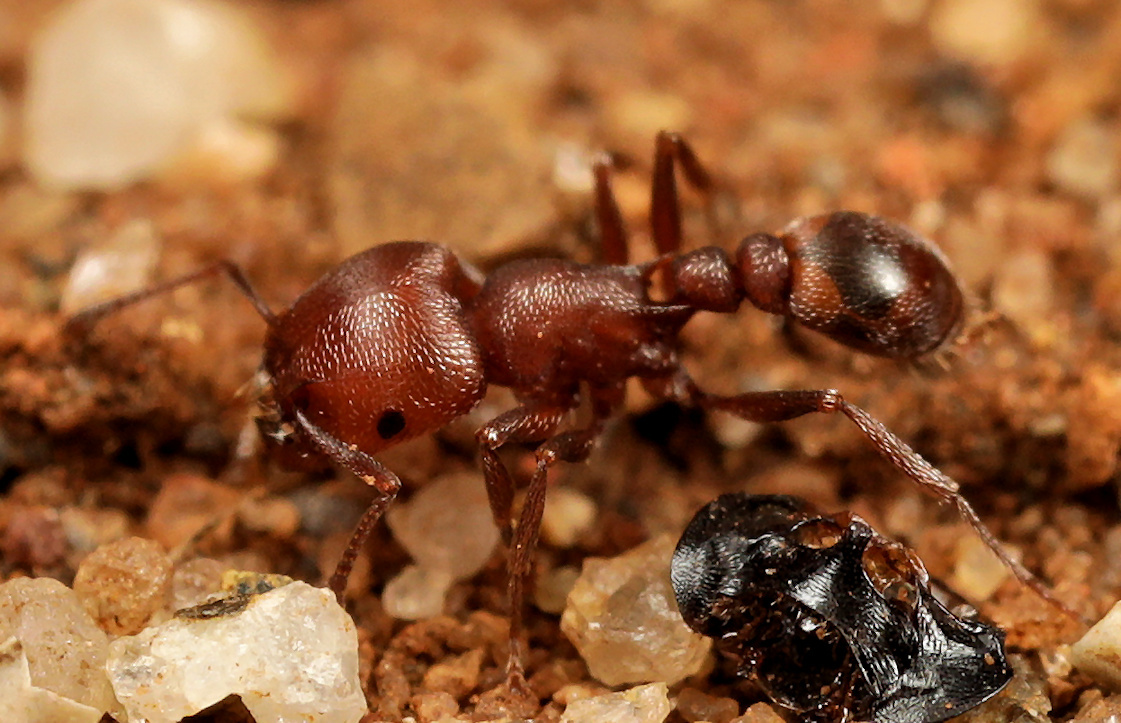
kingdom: Animalia
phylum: Arthropoda
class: Insecta
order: Hymenoptera
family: Formicidae
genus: Tetramorium
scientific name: Tetramorium setuliferum
